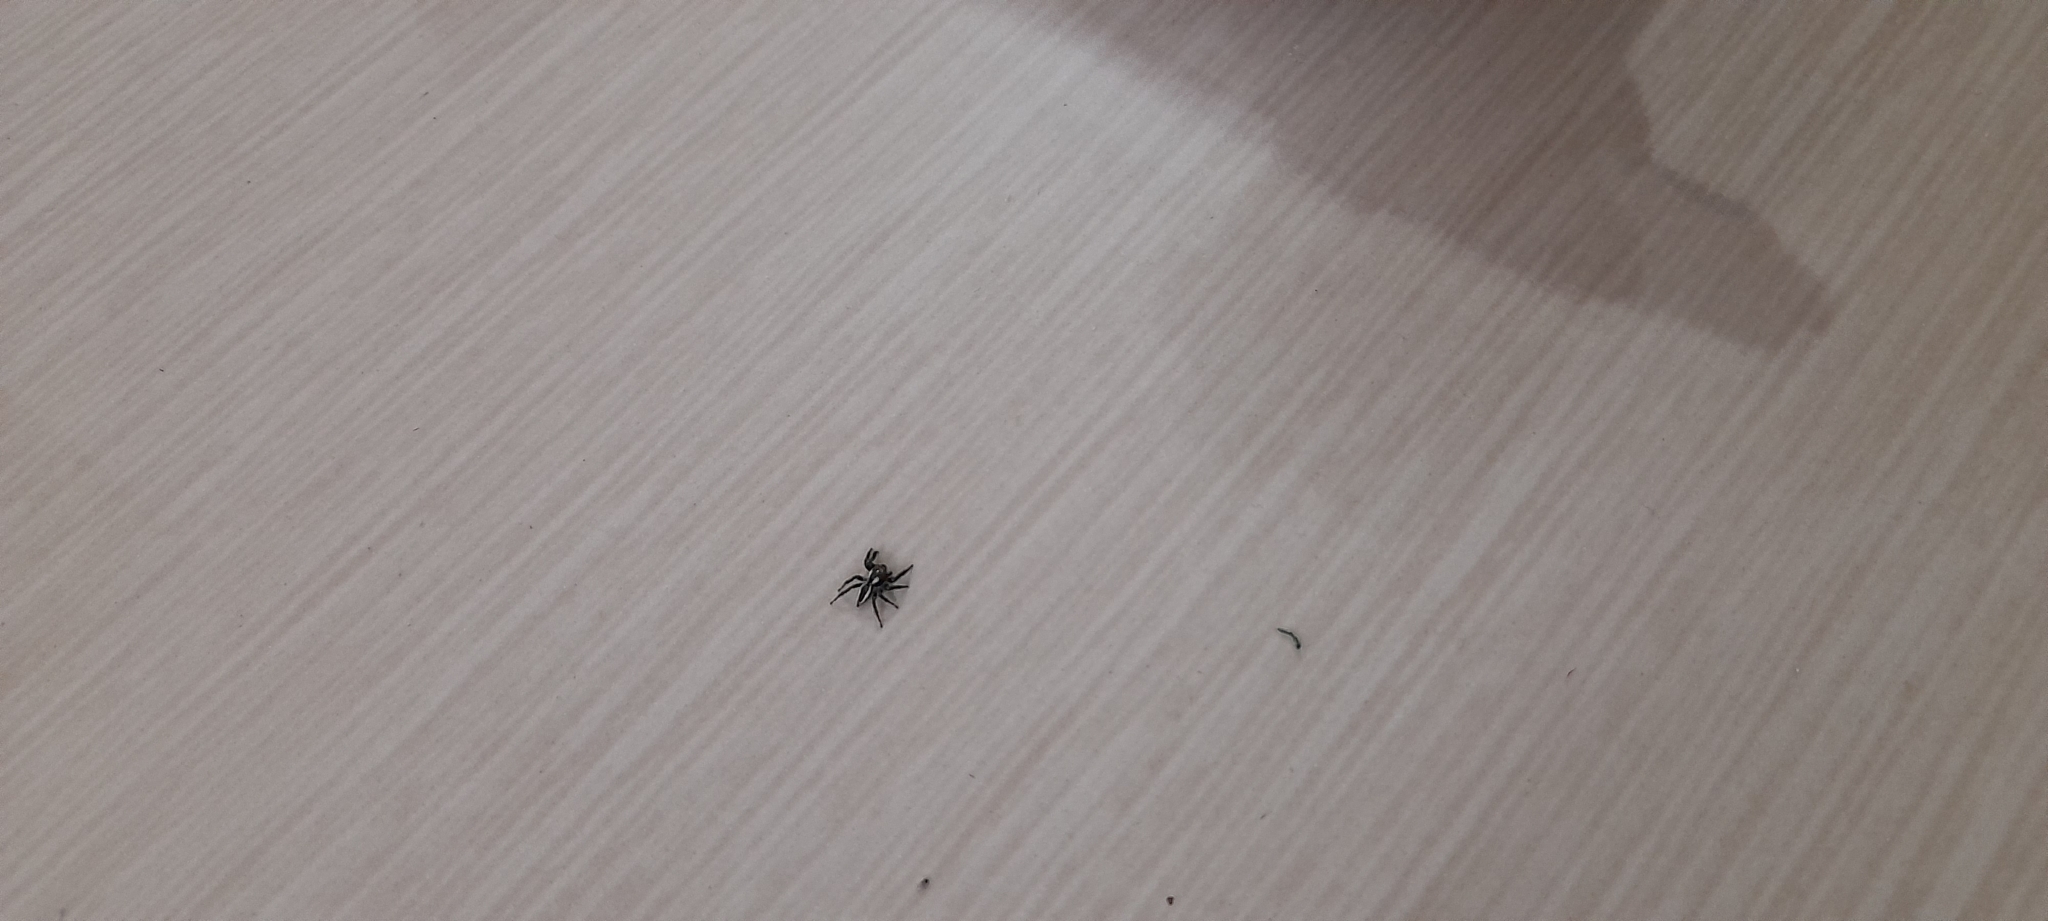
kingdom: Animalia
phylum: Arthropoda
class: Arachnida
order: Araneae
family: Salticidae
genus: Carrhotus
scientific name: Carrhotus viduus
